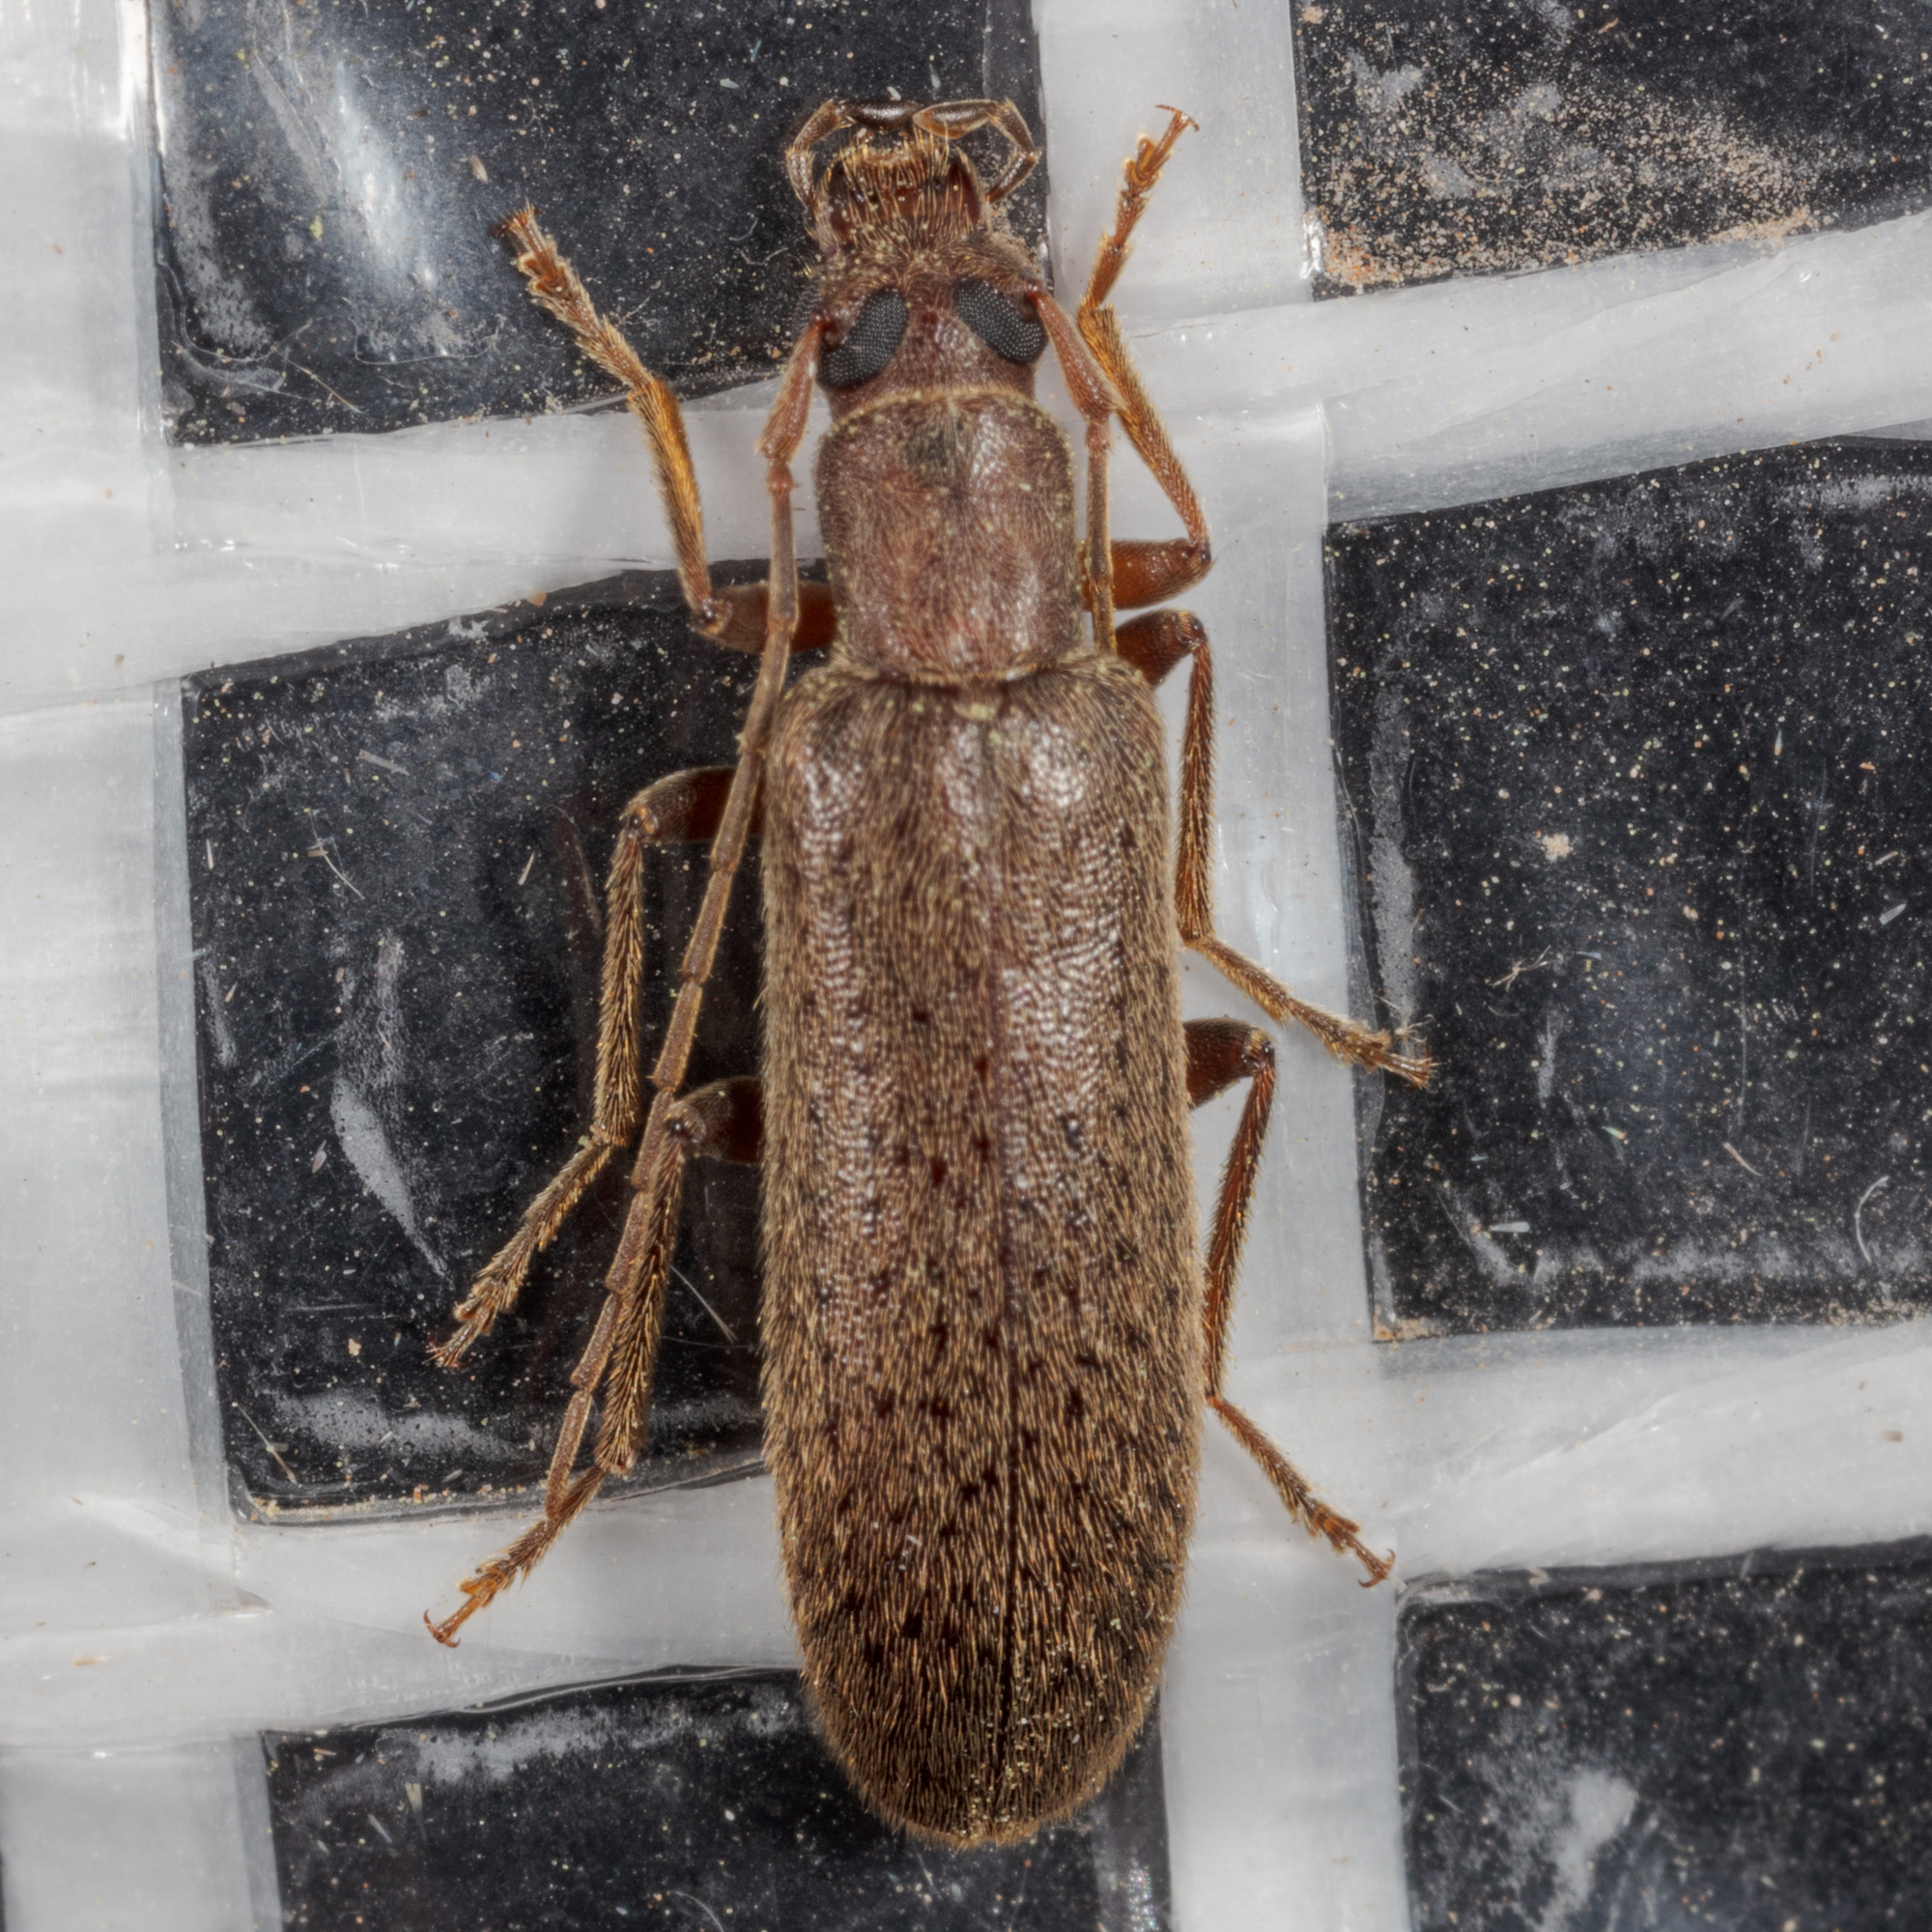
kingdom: Animalia
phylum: Arthropoda
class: Insecta
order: Coleoptera
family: Oedemeridae
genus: Sparedrus
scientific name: Sparedrus aspersus
